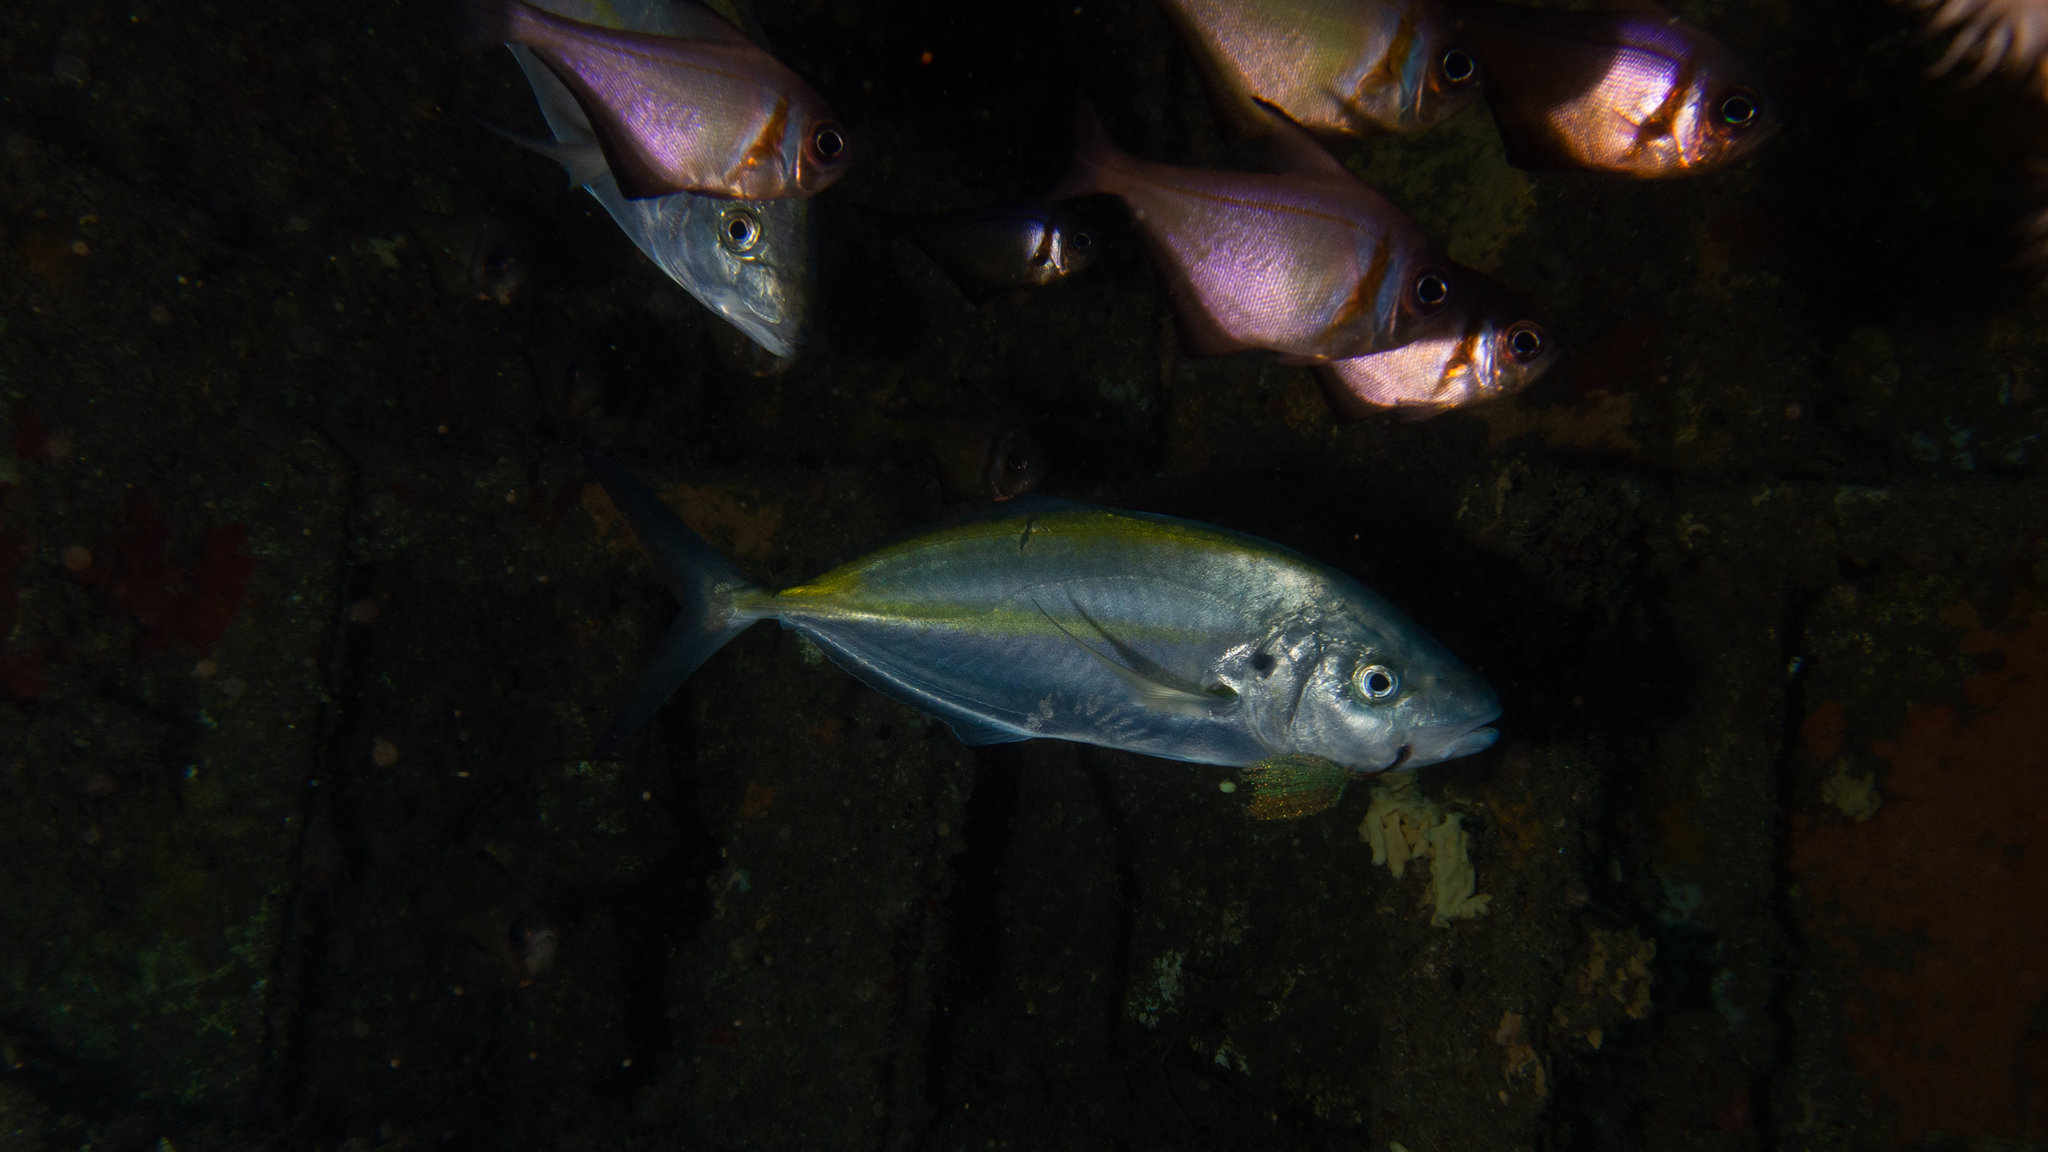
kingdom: Animalia
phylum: Chordata
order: Perciformes
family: Carangidae
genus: Pseudocaranx
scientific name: Pseudocaranx dentex
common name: White trevally
